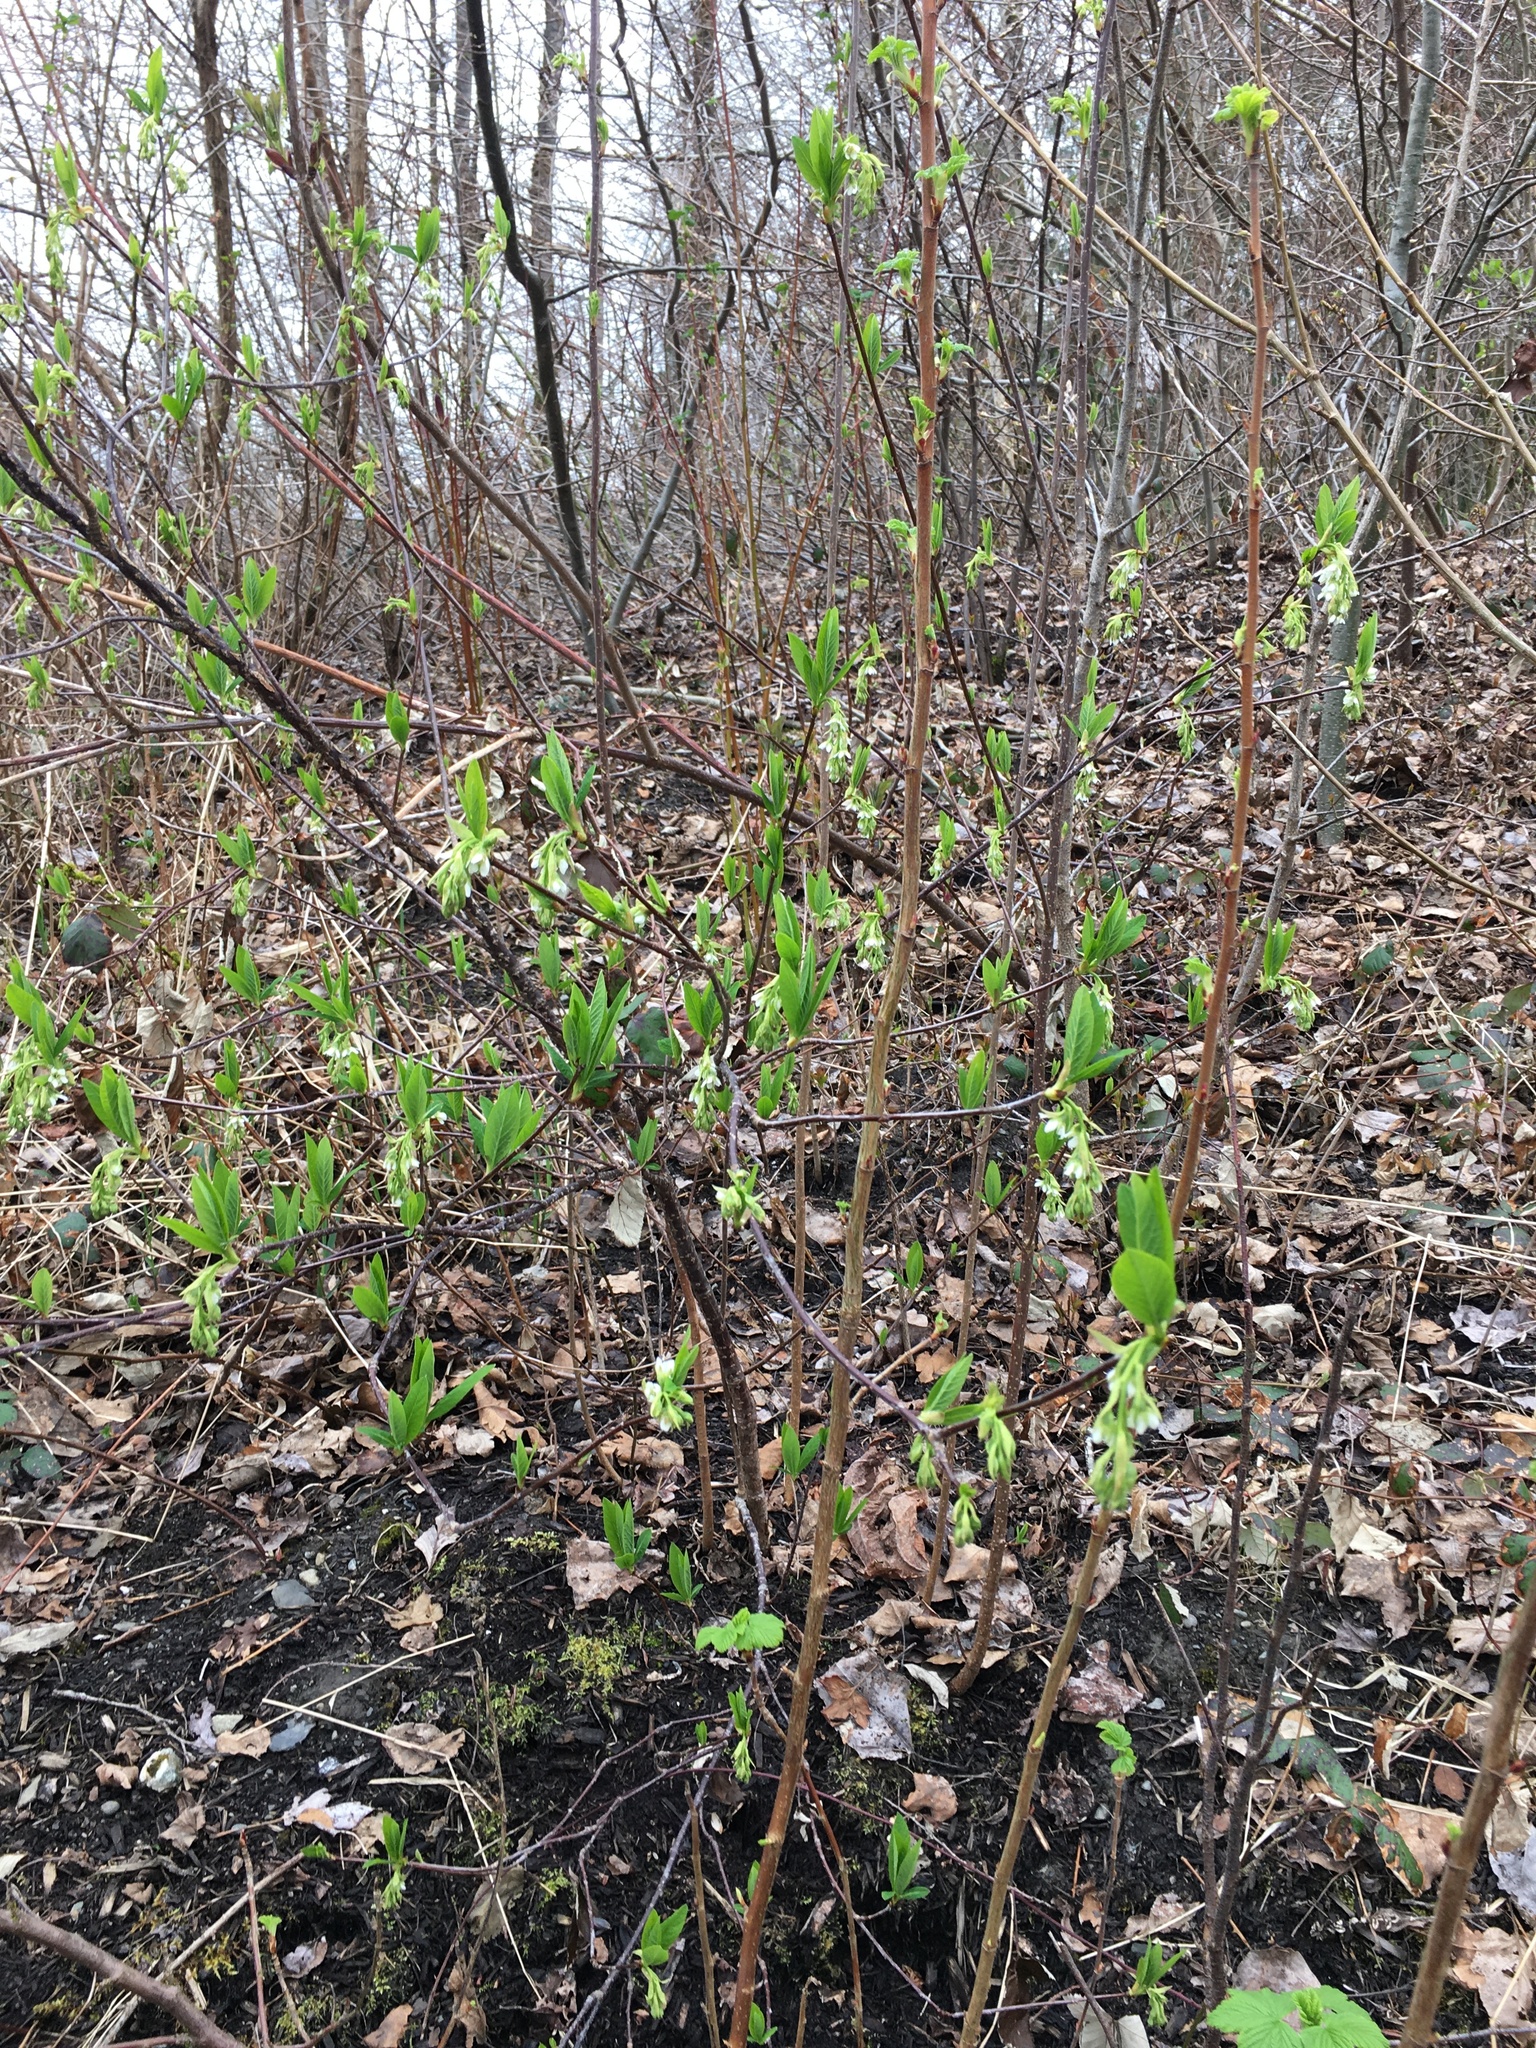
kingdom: Plantae
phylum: Tracheophyta
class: Magnoliopsida
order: Rosales
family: Rosaceae
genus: Oemleria
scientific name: Oemleria cerasiformis
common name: Osoberry
